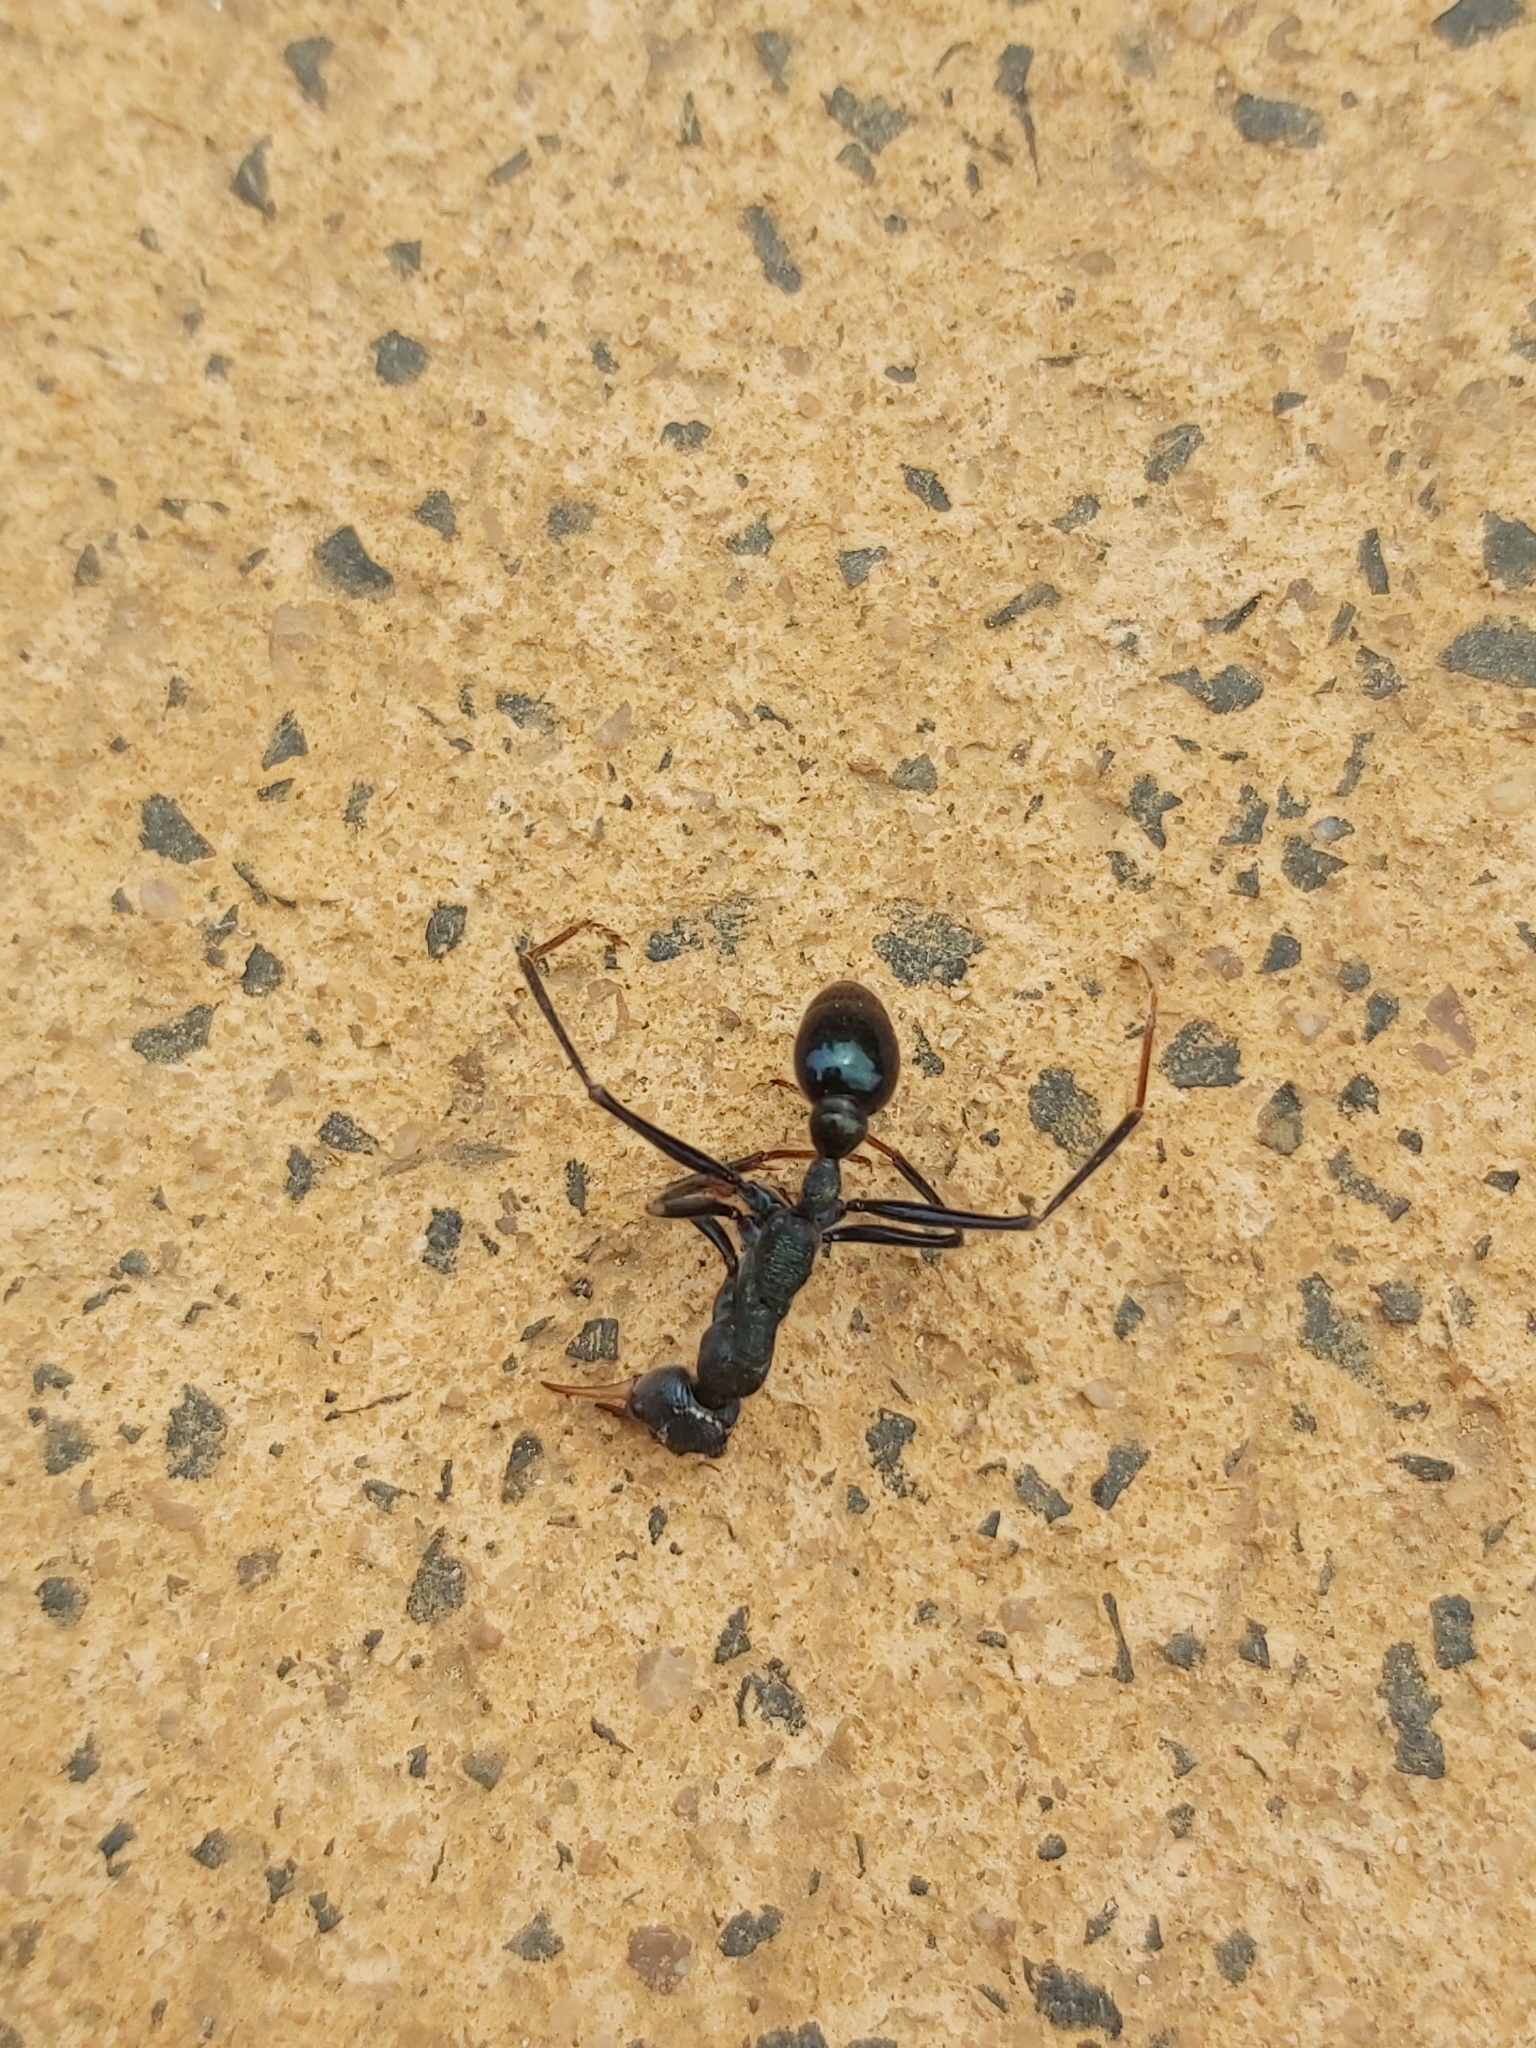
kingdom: Animalia
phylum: Arthropoda
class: Insecta
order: Hymenoptera
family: Formicidae
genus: Myrmecia
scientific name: Myrmecia tarsata
